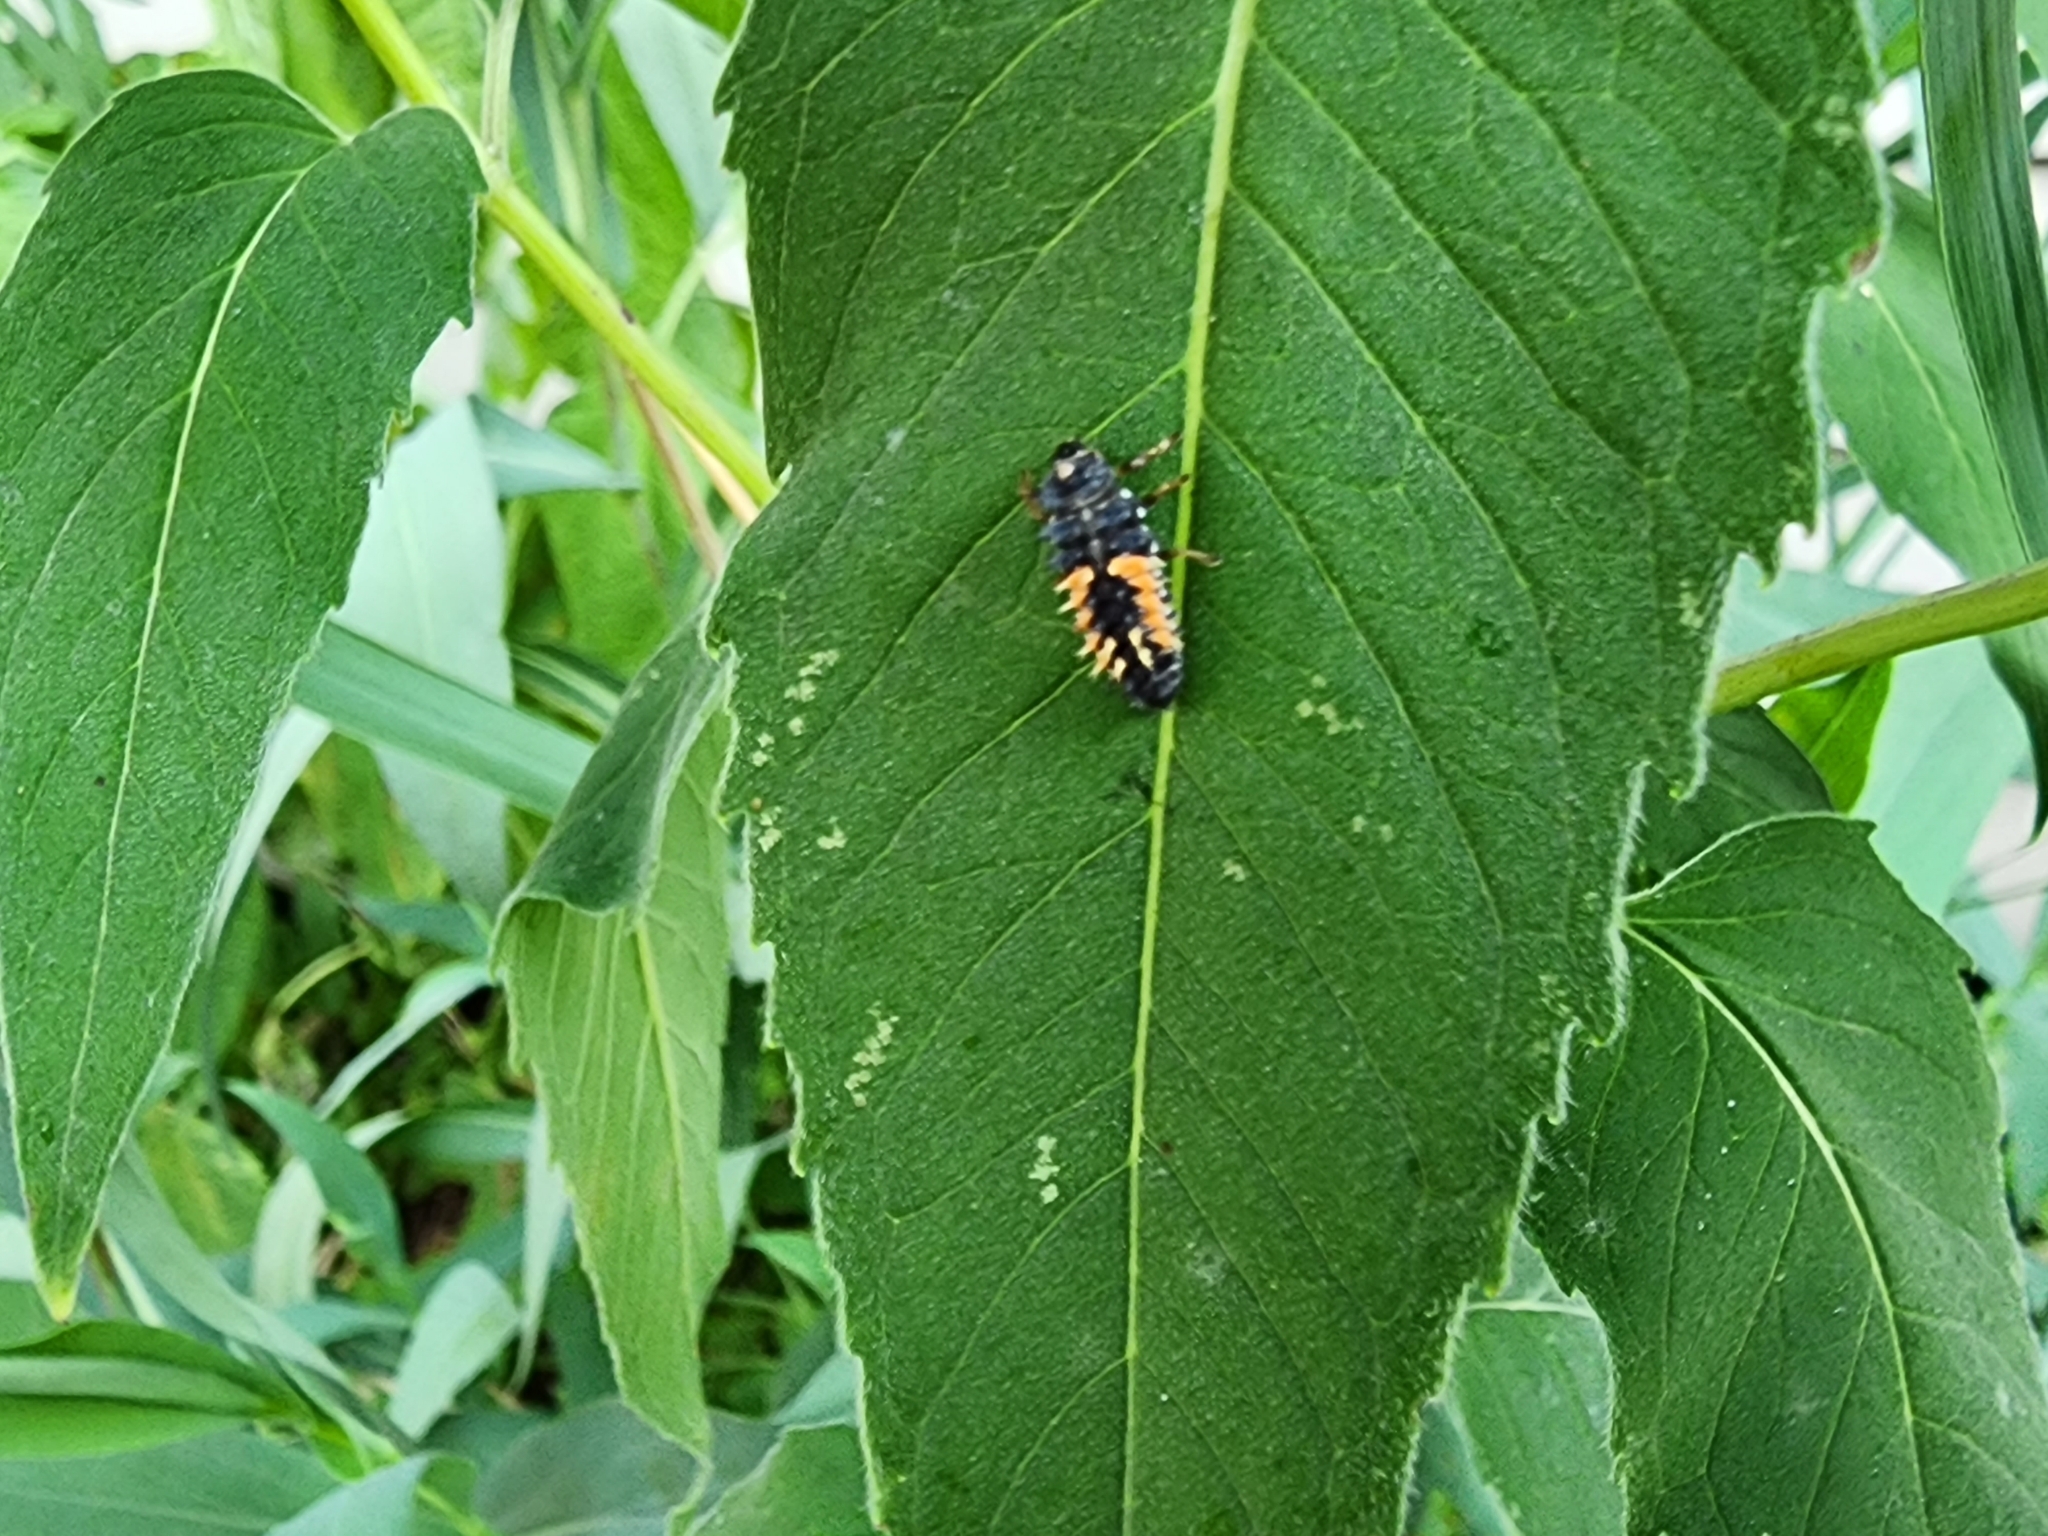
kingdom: Animalia
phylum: Arthropoda
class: Insecta
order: Coleoptera
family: Coccinellidae
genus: Harmonia
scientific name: Harmonia axyridis
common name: Harlequin ladybird
